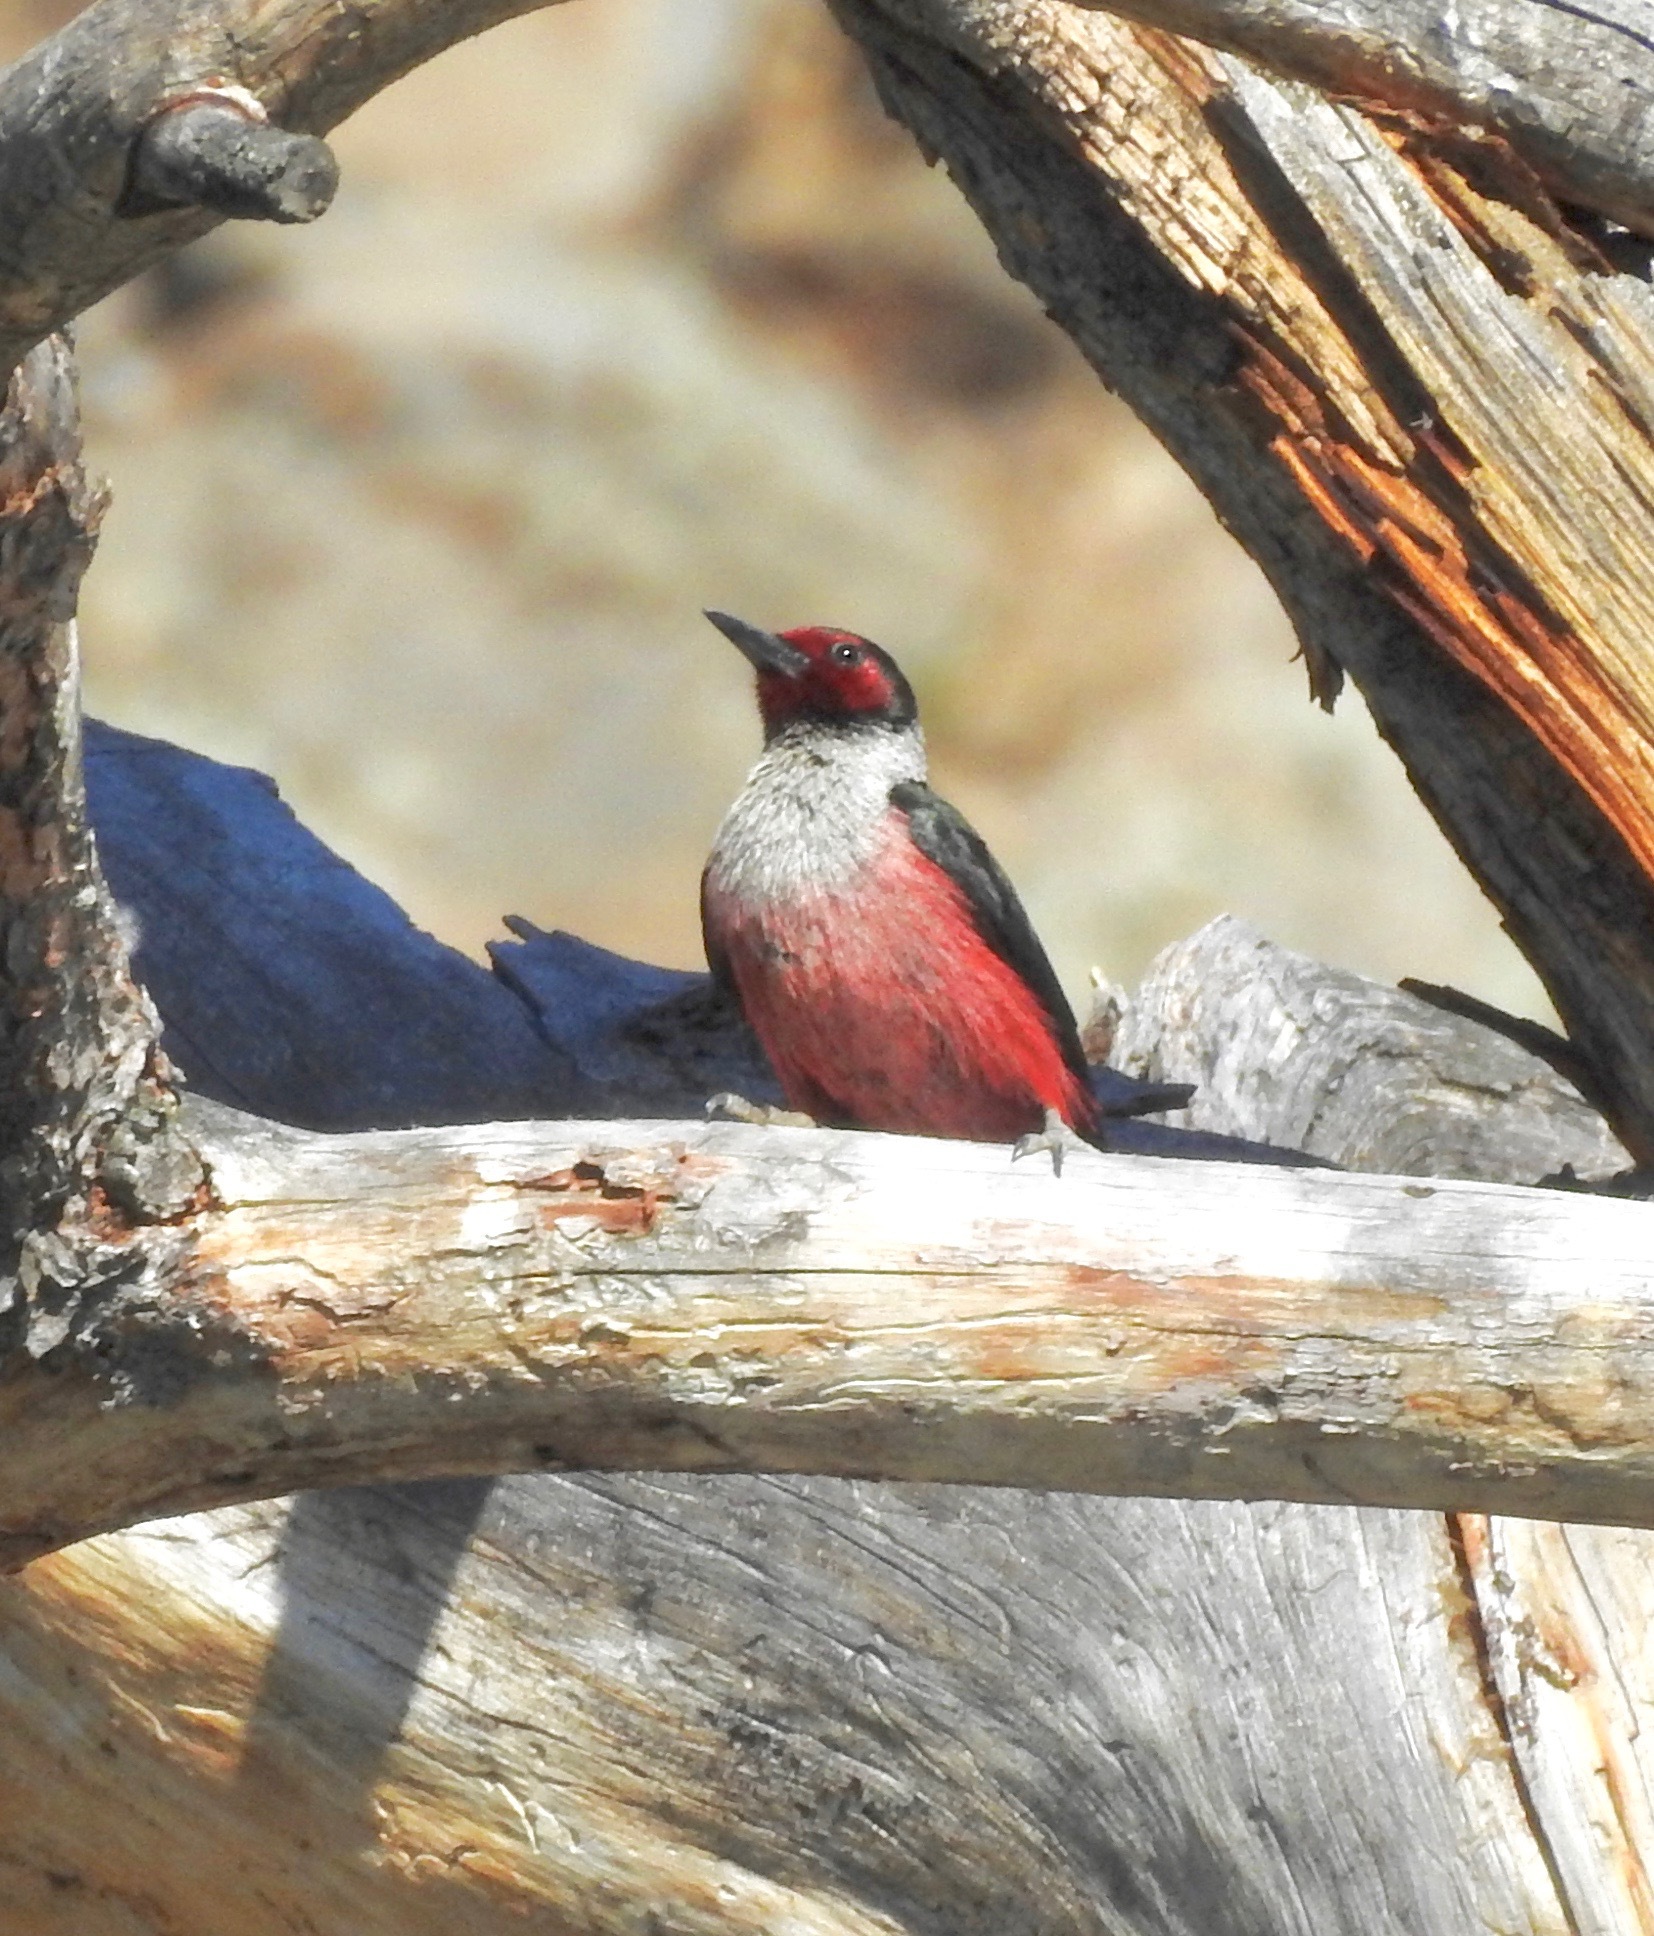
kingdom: Animalia
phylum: Chordata
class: Aves
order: Piciformes
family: Picidae
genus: Melanerpes
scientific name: Melanerpes lewis
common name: Lewis's woodpecker
